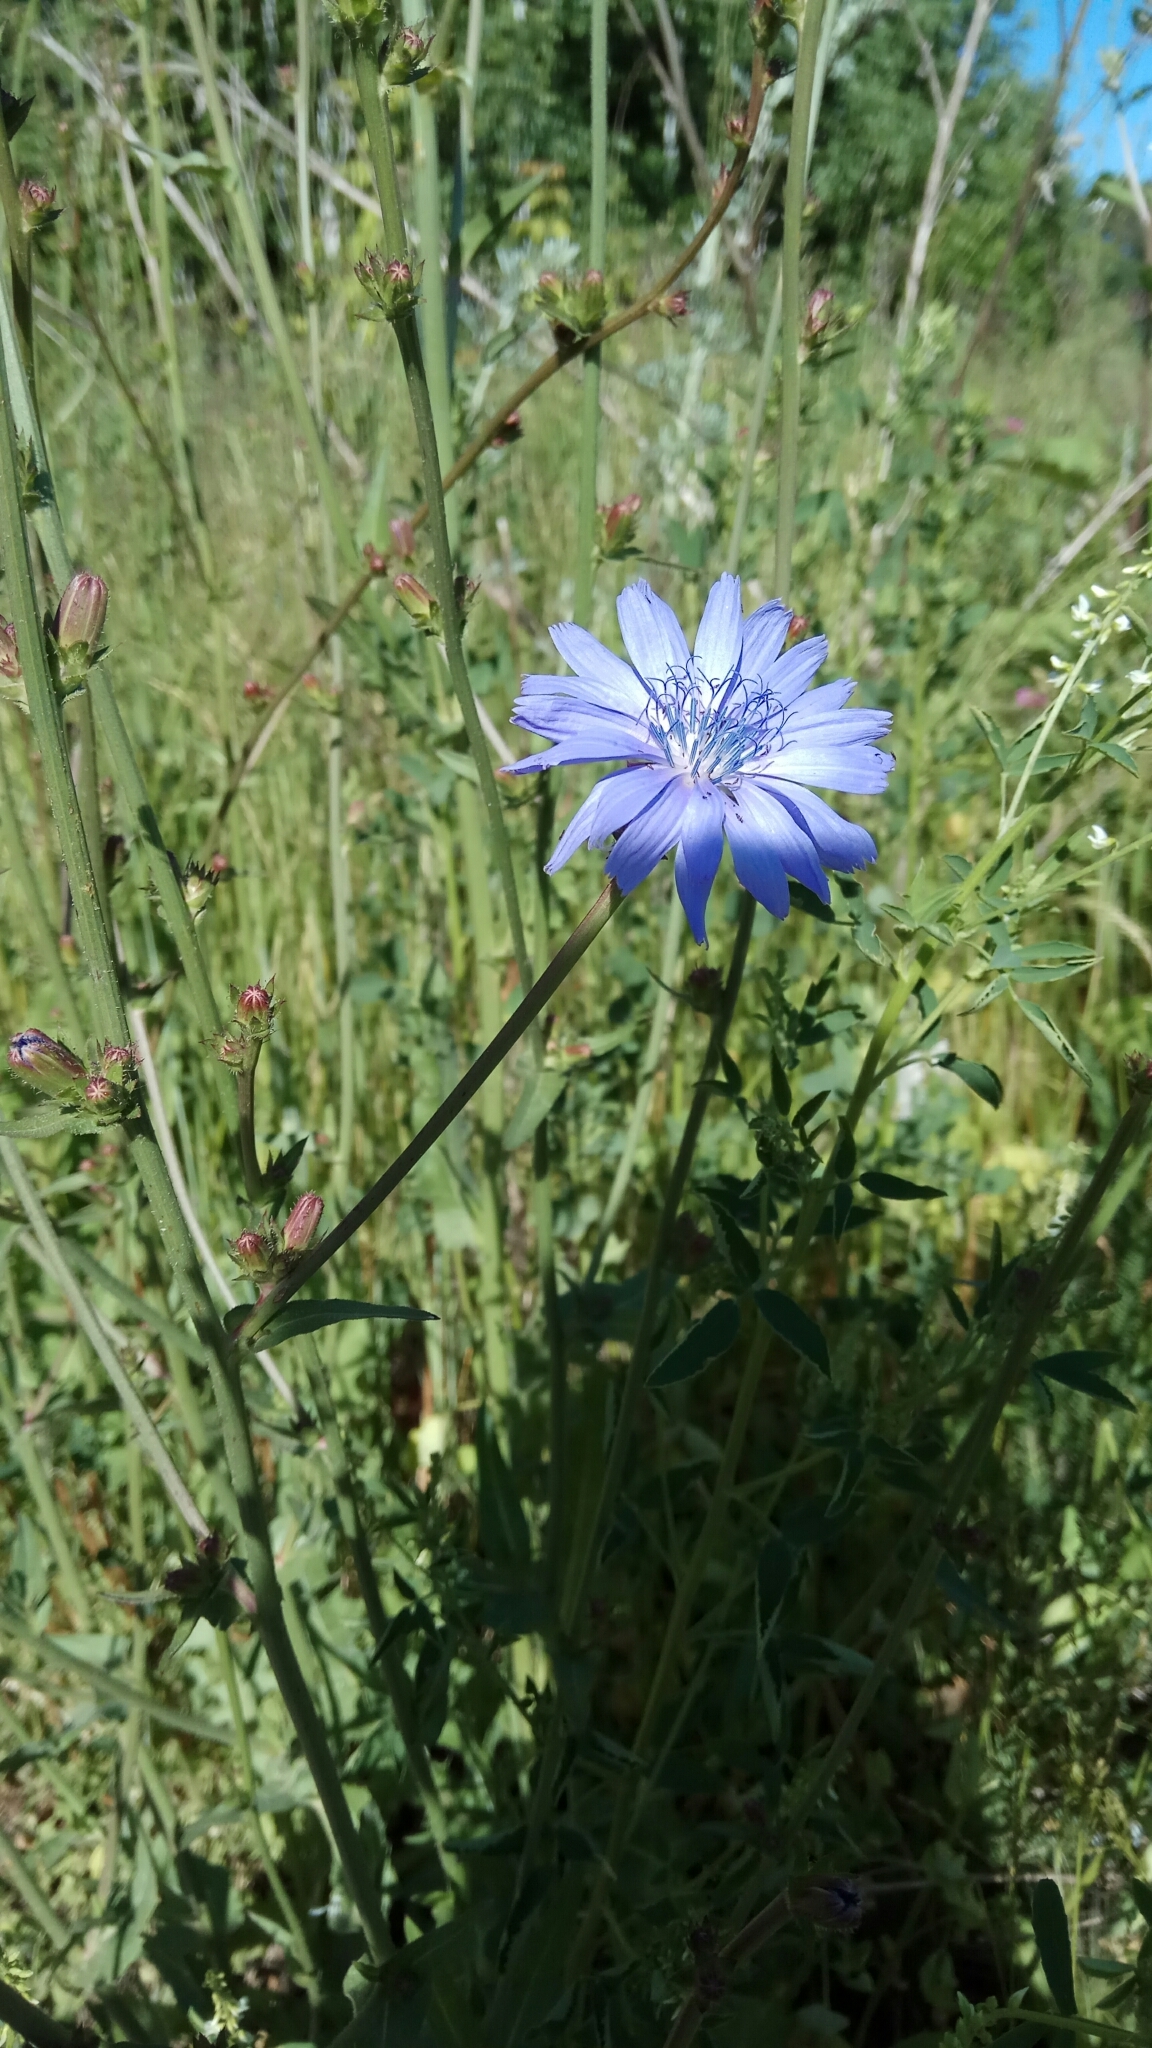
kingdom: Plantae
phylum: Tracheophyta
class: Magnoliopsida
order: Asterales
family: Asteraceae
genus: Cichorium
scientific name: Cichorium intybus
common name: Chicory
